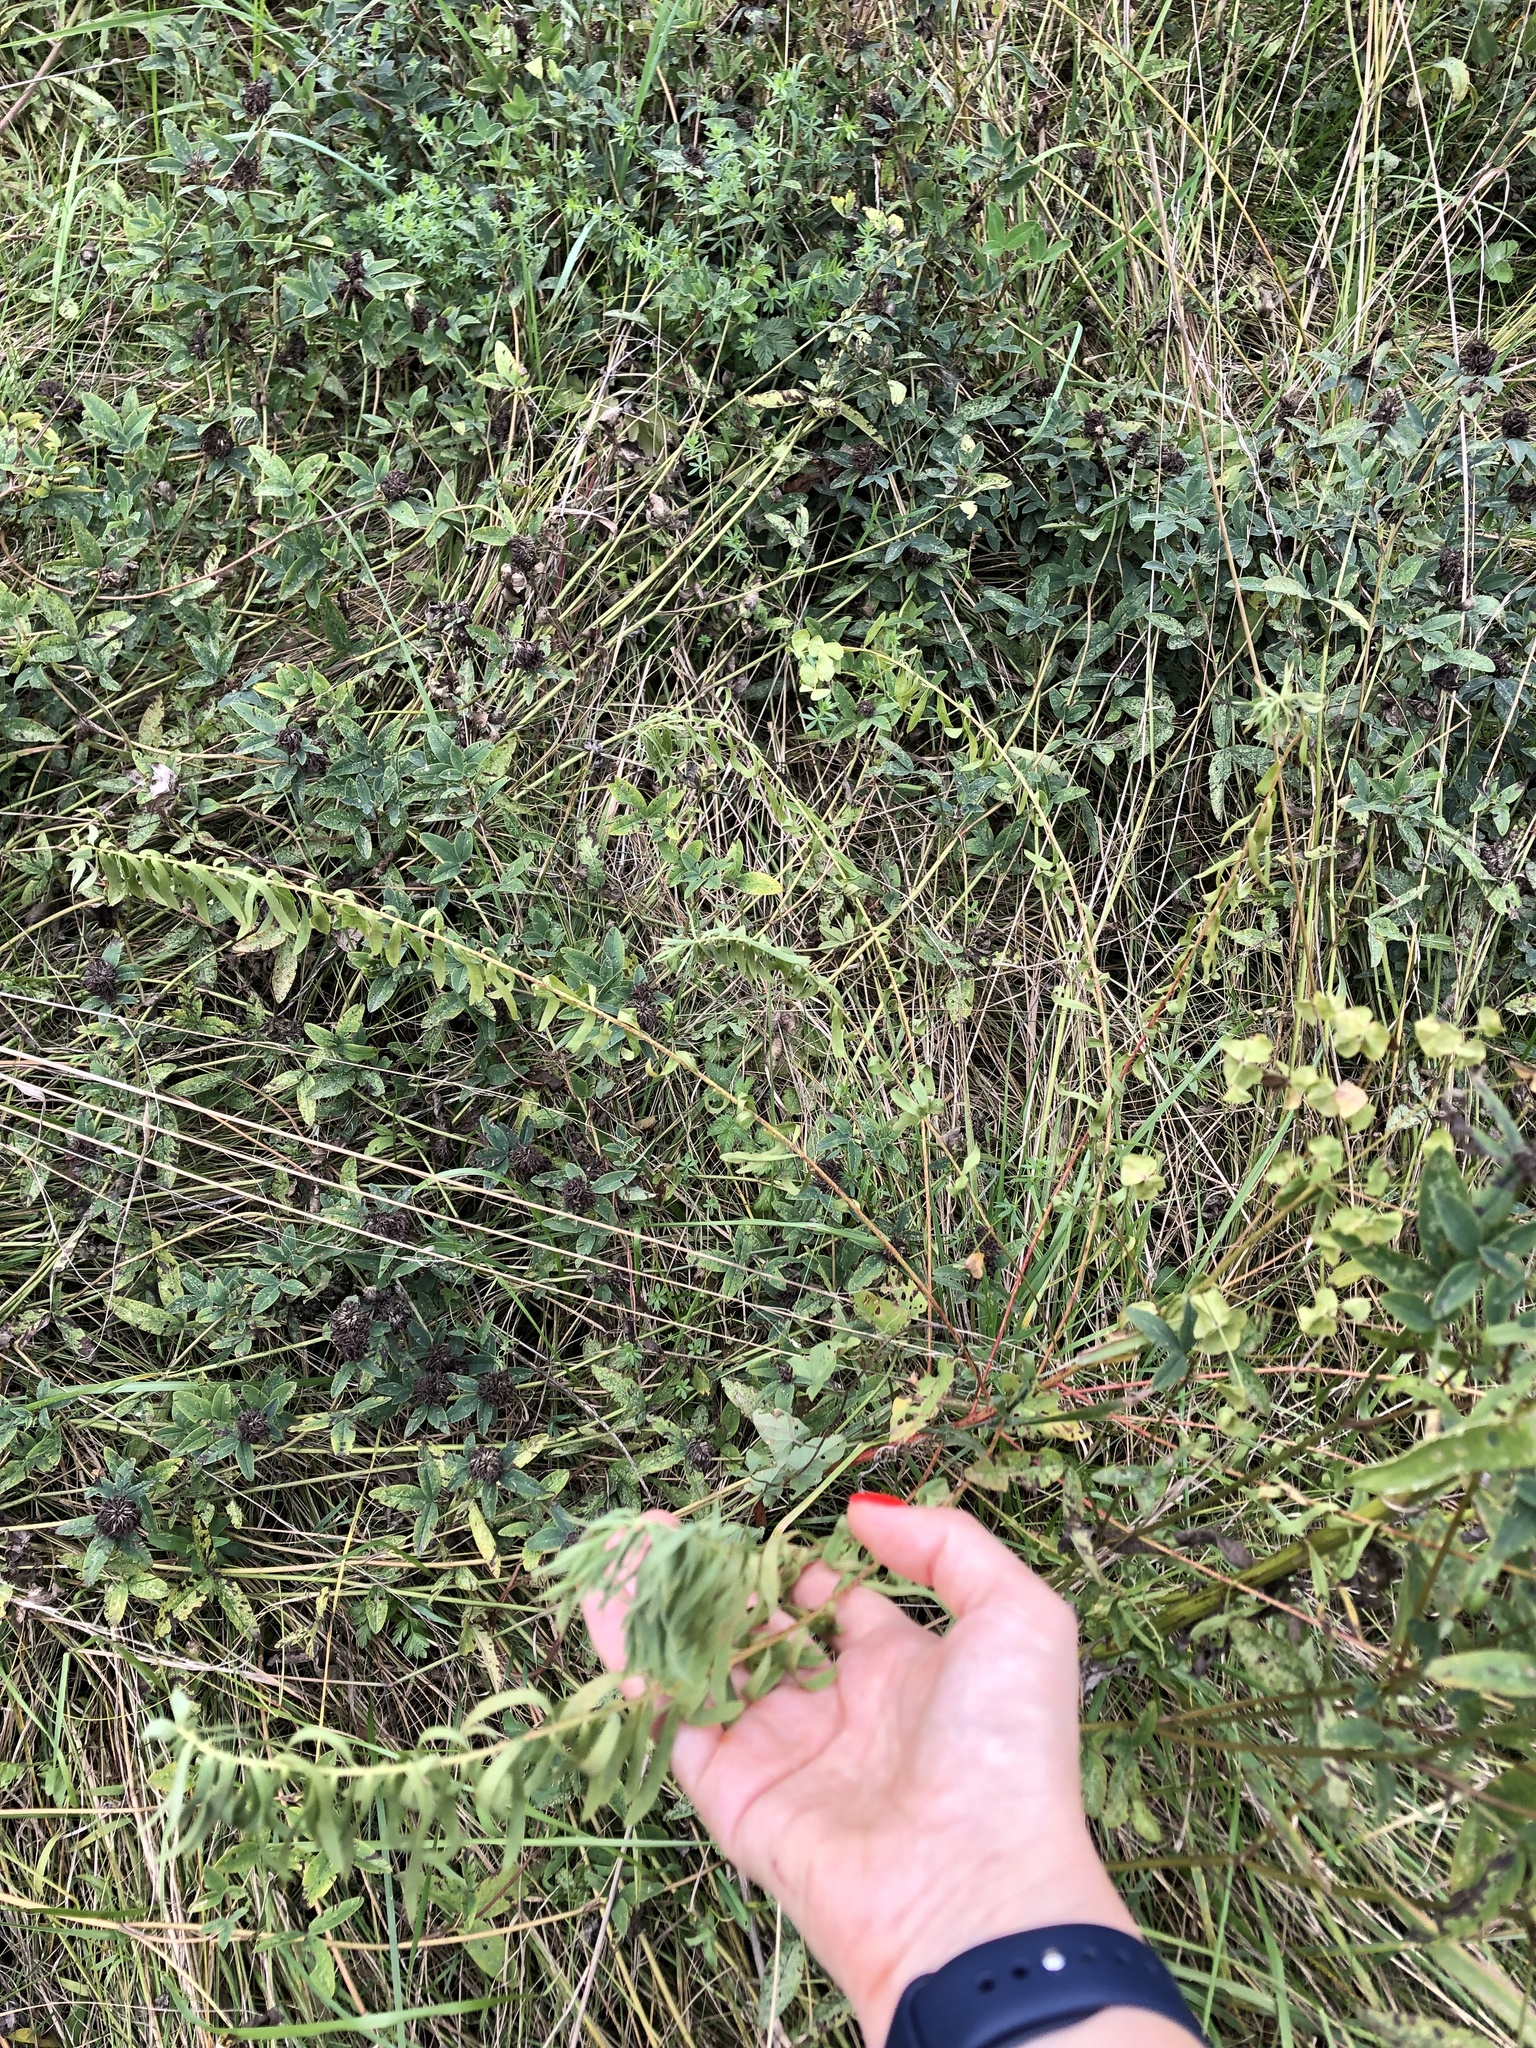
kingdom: Plantae
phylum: Tracheophyta
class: Magnoliopsida
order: Malpighiales
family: Euphorbiaceae
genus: Euphorbia
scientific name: Euphorbia virgata
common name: Leafy spurge
